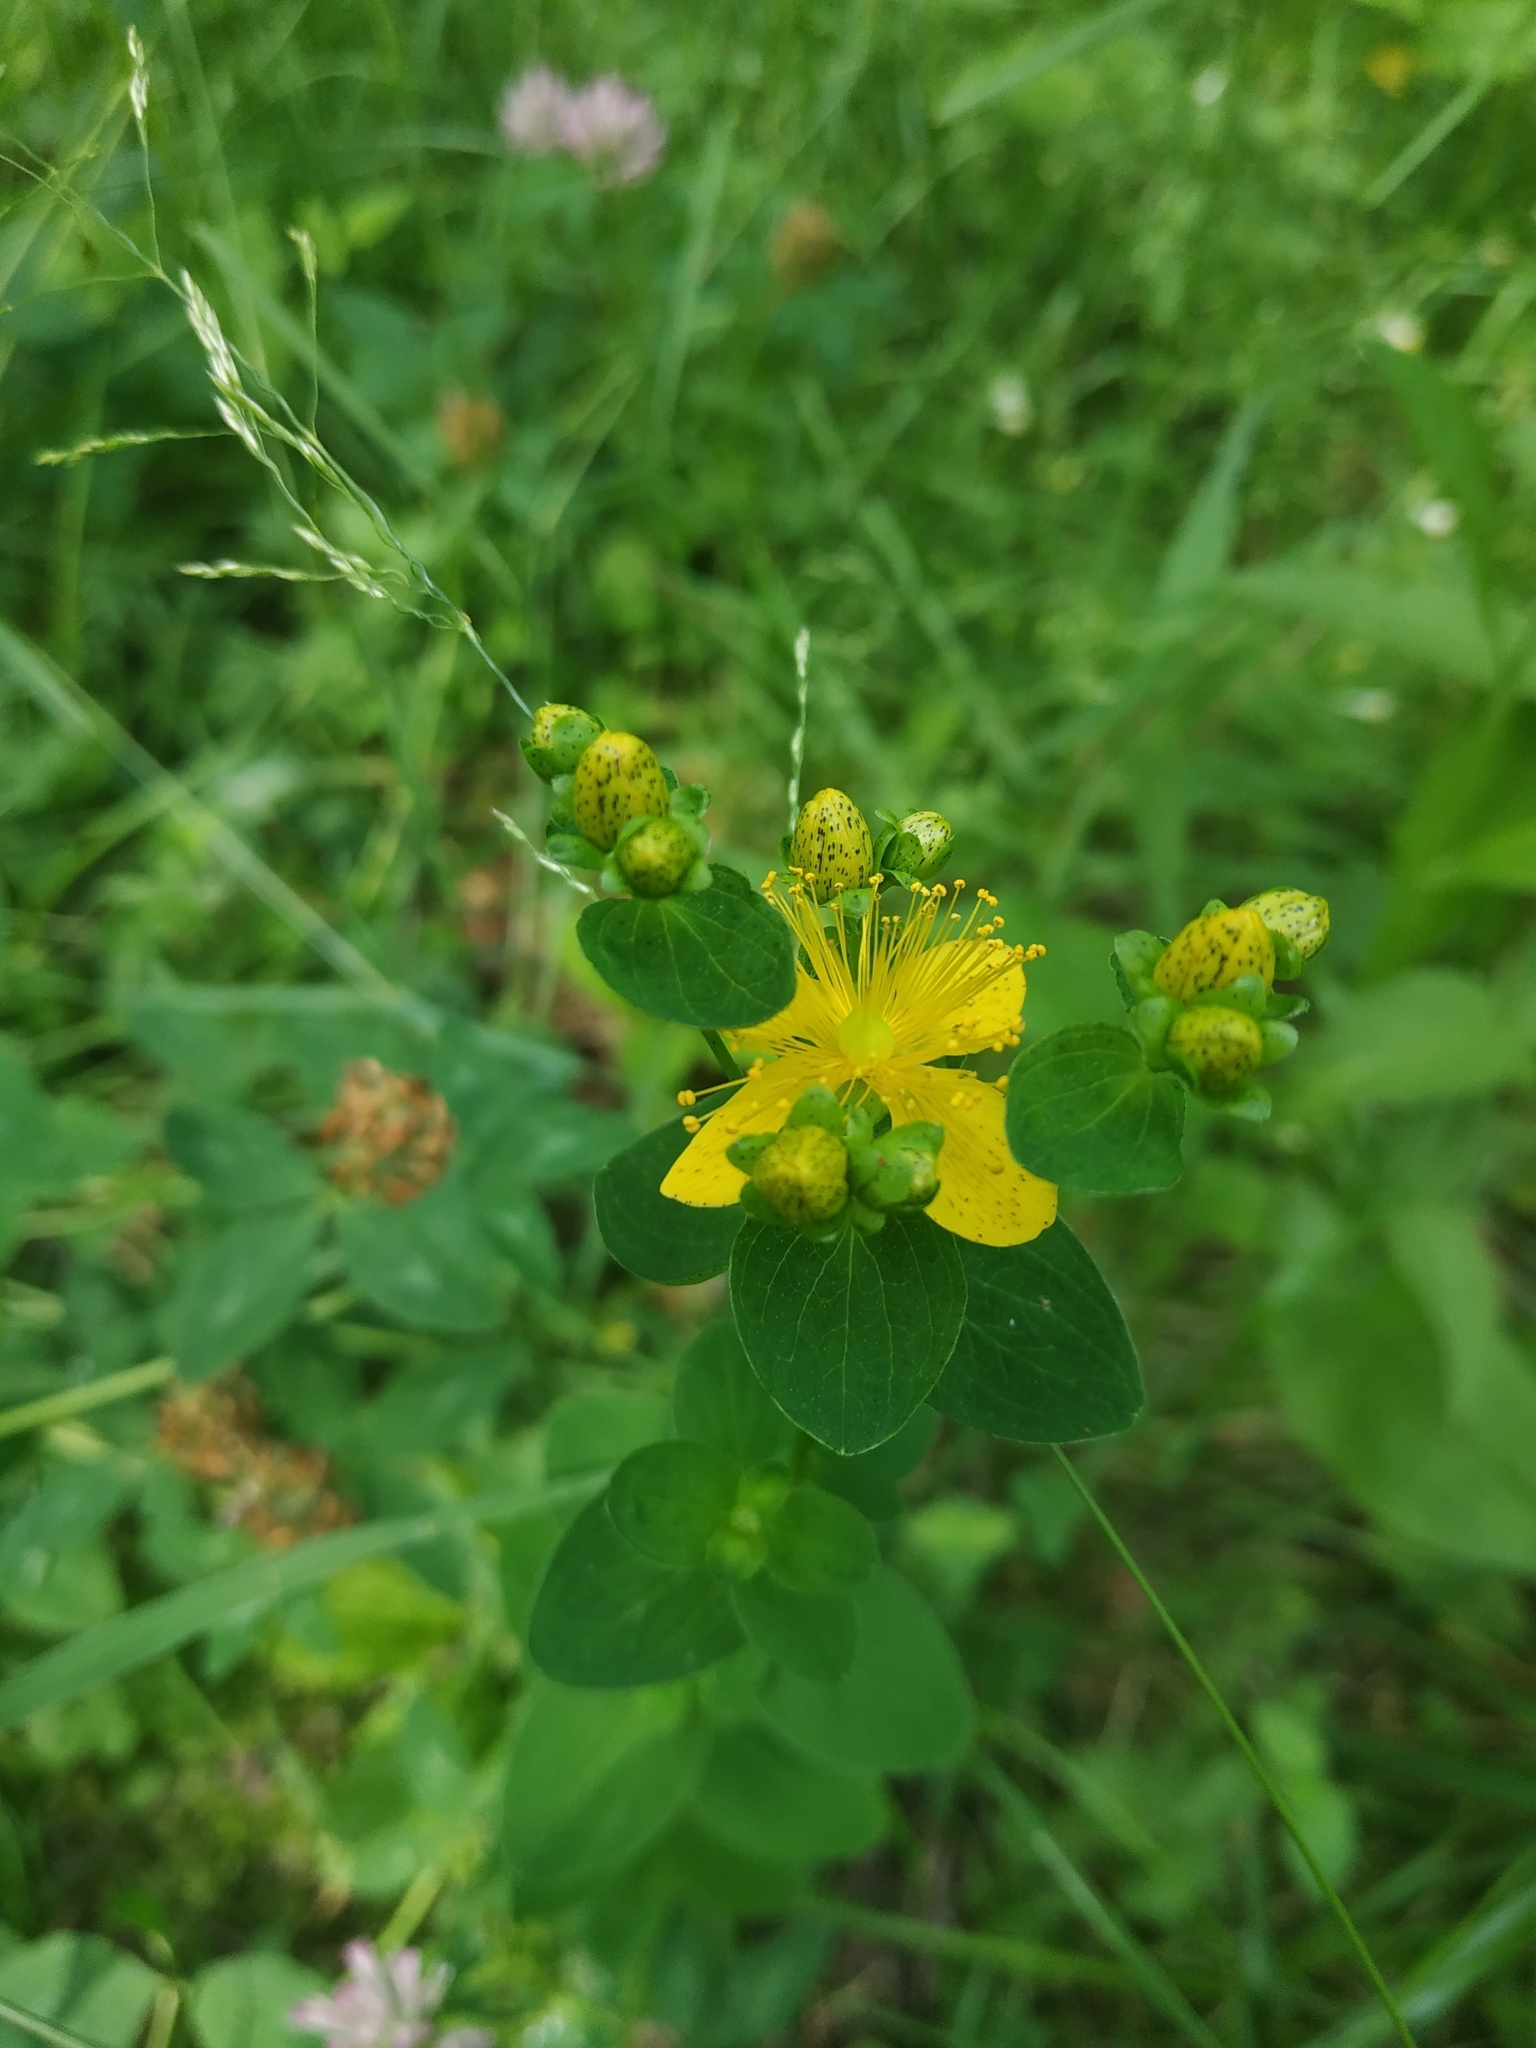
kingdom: Plantae
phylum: Tracheophyta
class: Magnoliopsida
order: Malpighiales
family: Hypericaceae
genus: Hypericum
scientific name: Hypericum maculatum
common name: Imperforate st. john's-wort
